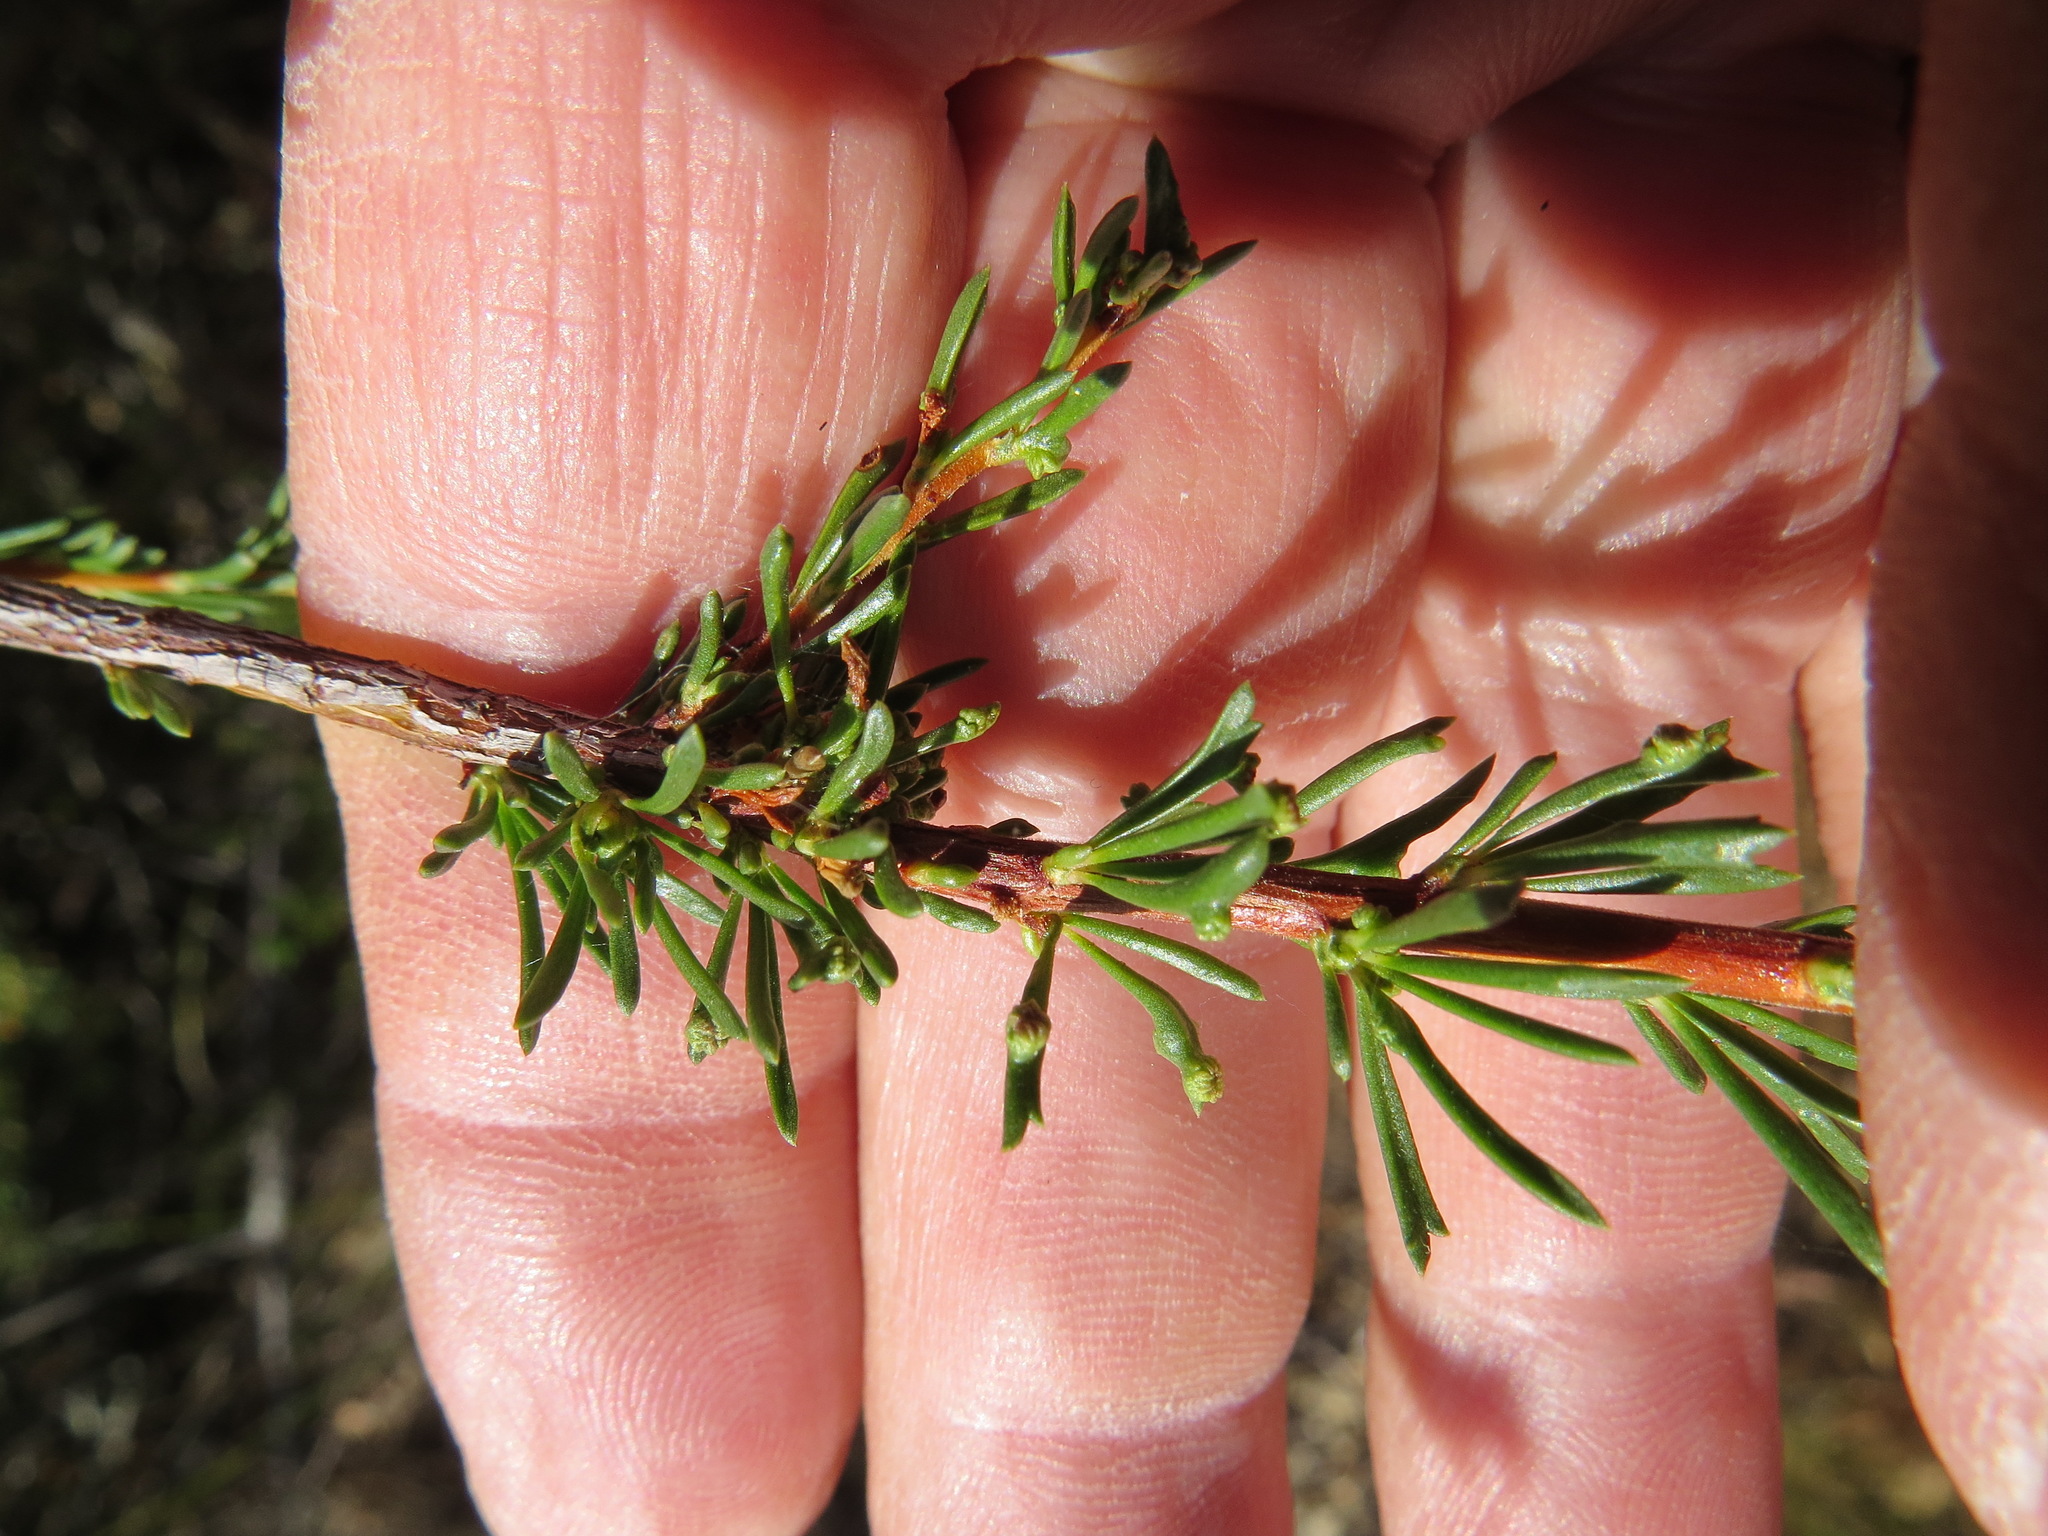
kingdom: Animalia
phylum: Arthropoda
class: Arachnida
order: Trombidiformes
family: Eriophyidae
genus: Eriophyes
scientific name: Eriophyes
